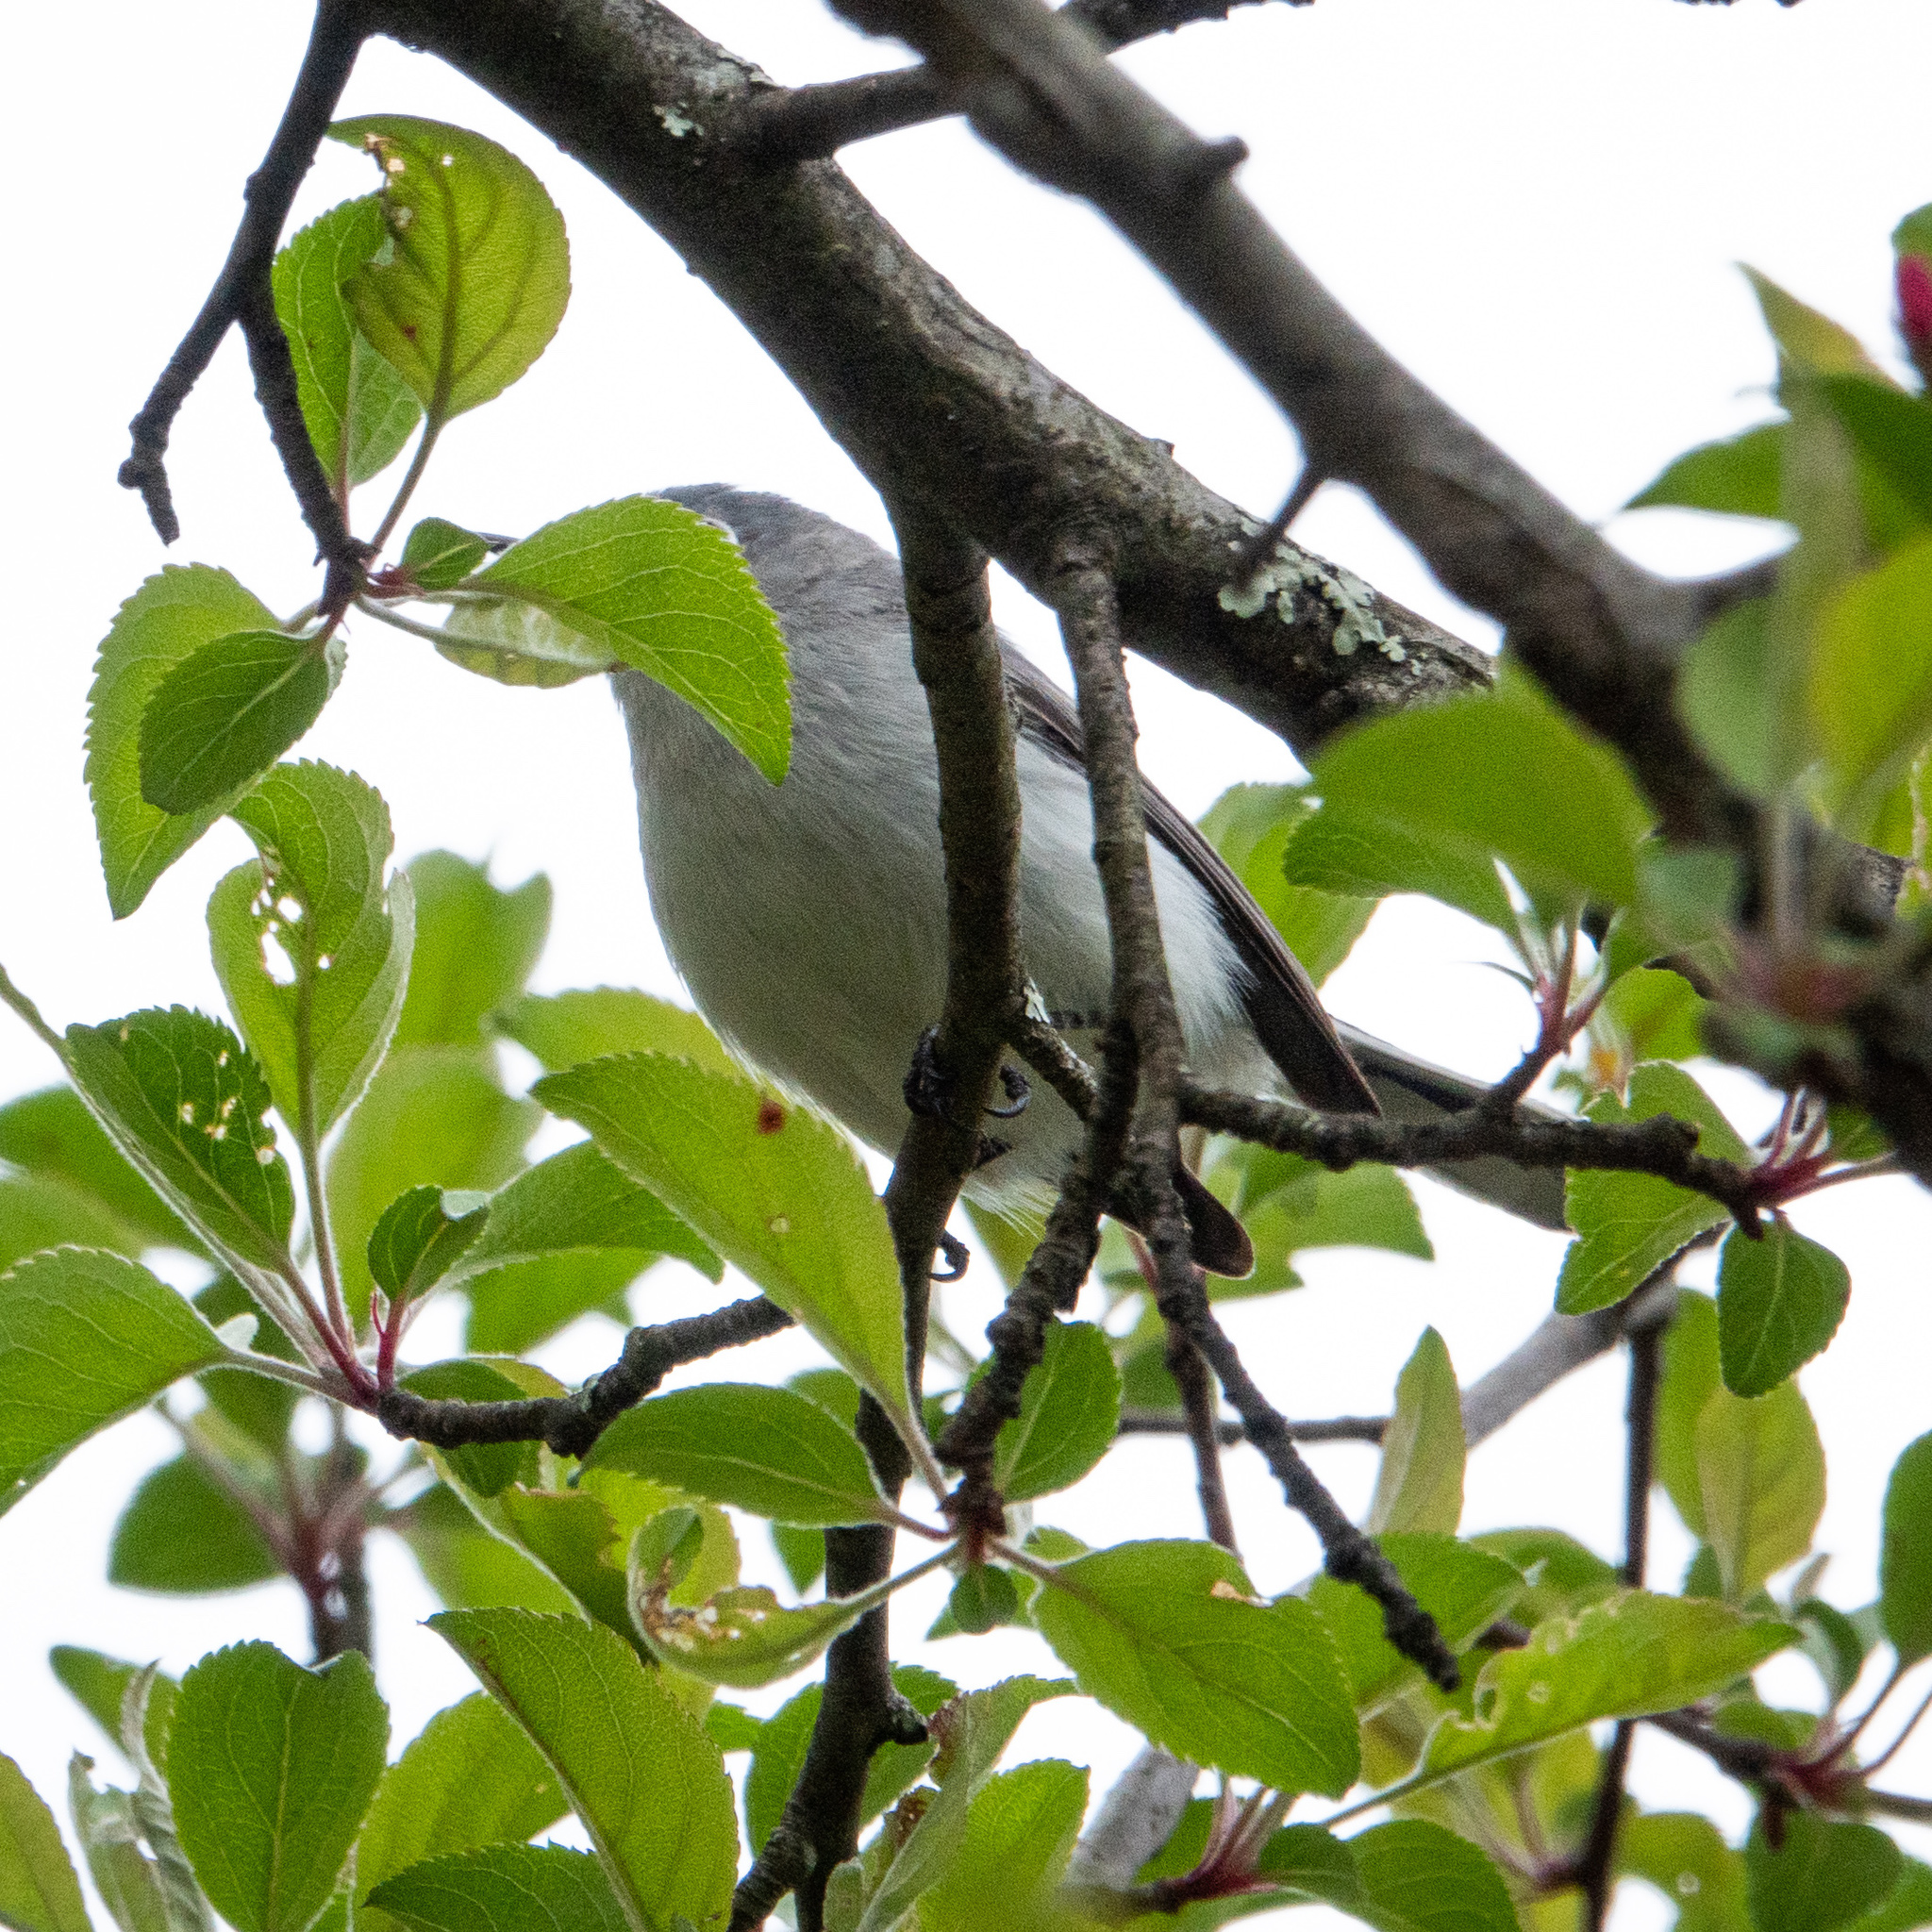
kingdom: Animalia
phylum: Chordata
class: Aves
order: Passeriformes
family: Polioptilidae
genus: Polioptila
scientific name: Polioptila caerulea
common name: Blue-gray gnatcatcher
